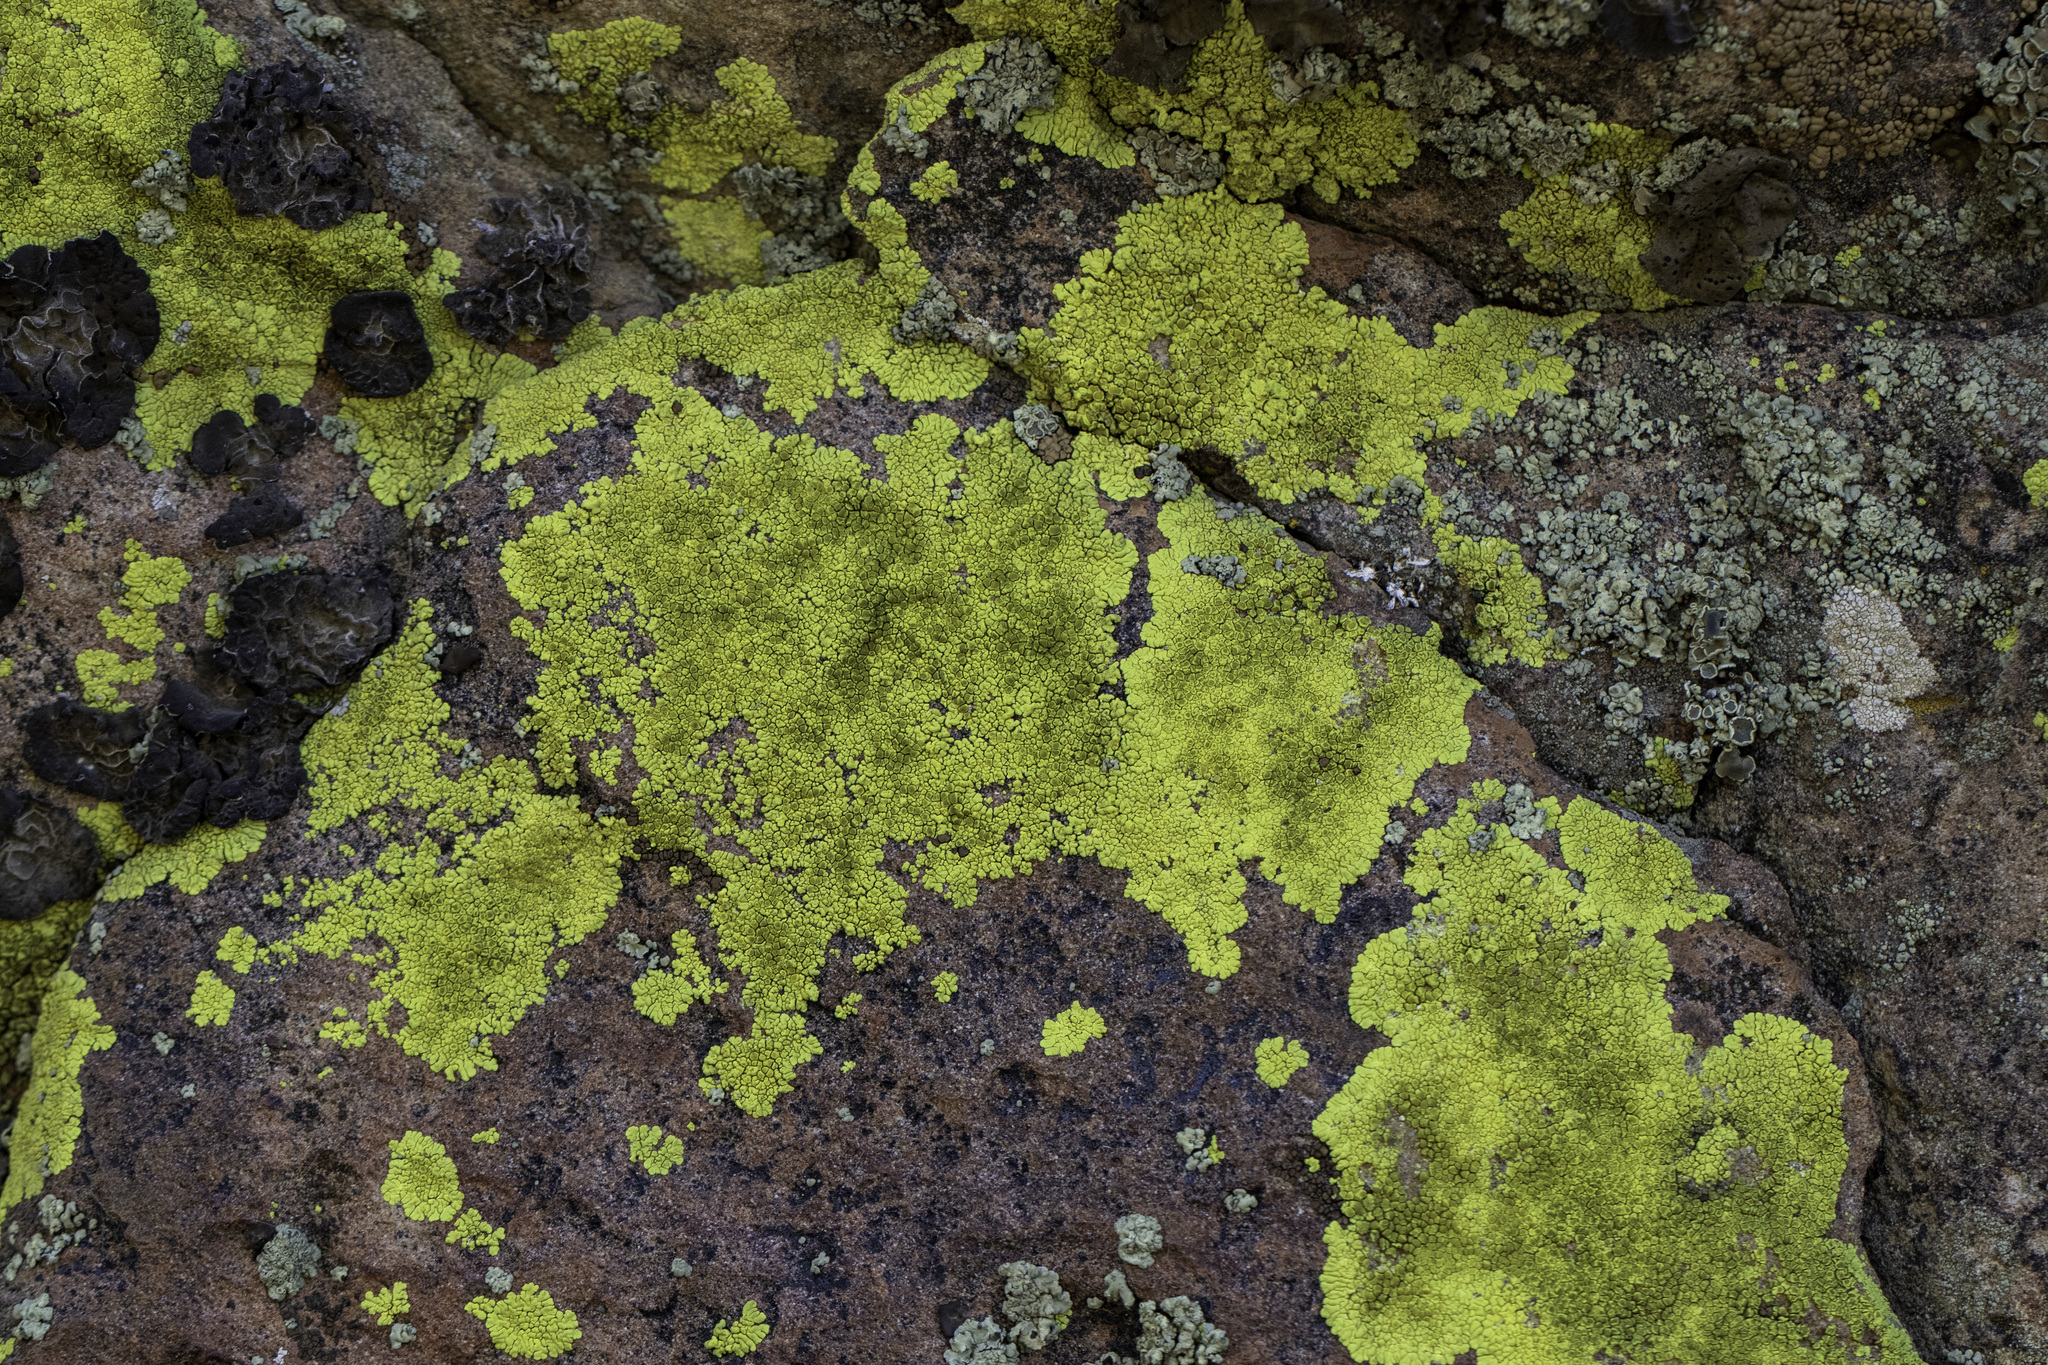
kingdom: Fungi
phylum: Ascomycota
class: Lecanoromycetes
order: Acarosporales
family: Acarosporaceae
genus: Acarospora
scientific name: Acarospora socialis
